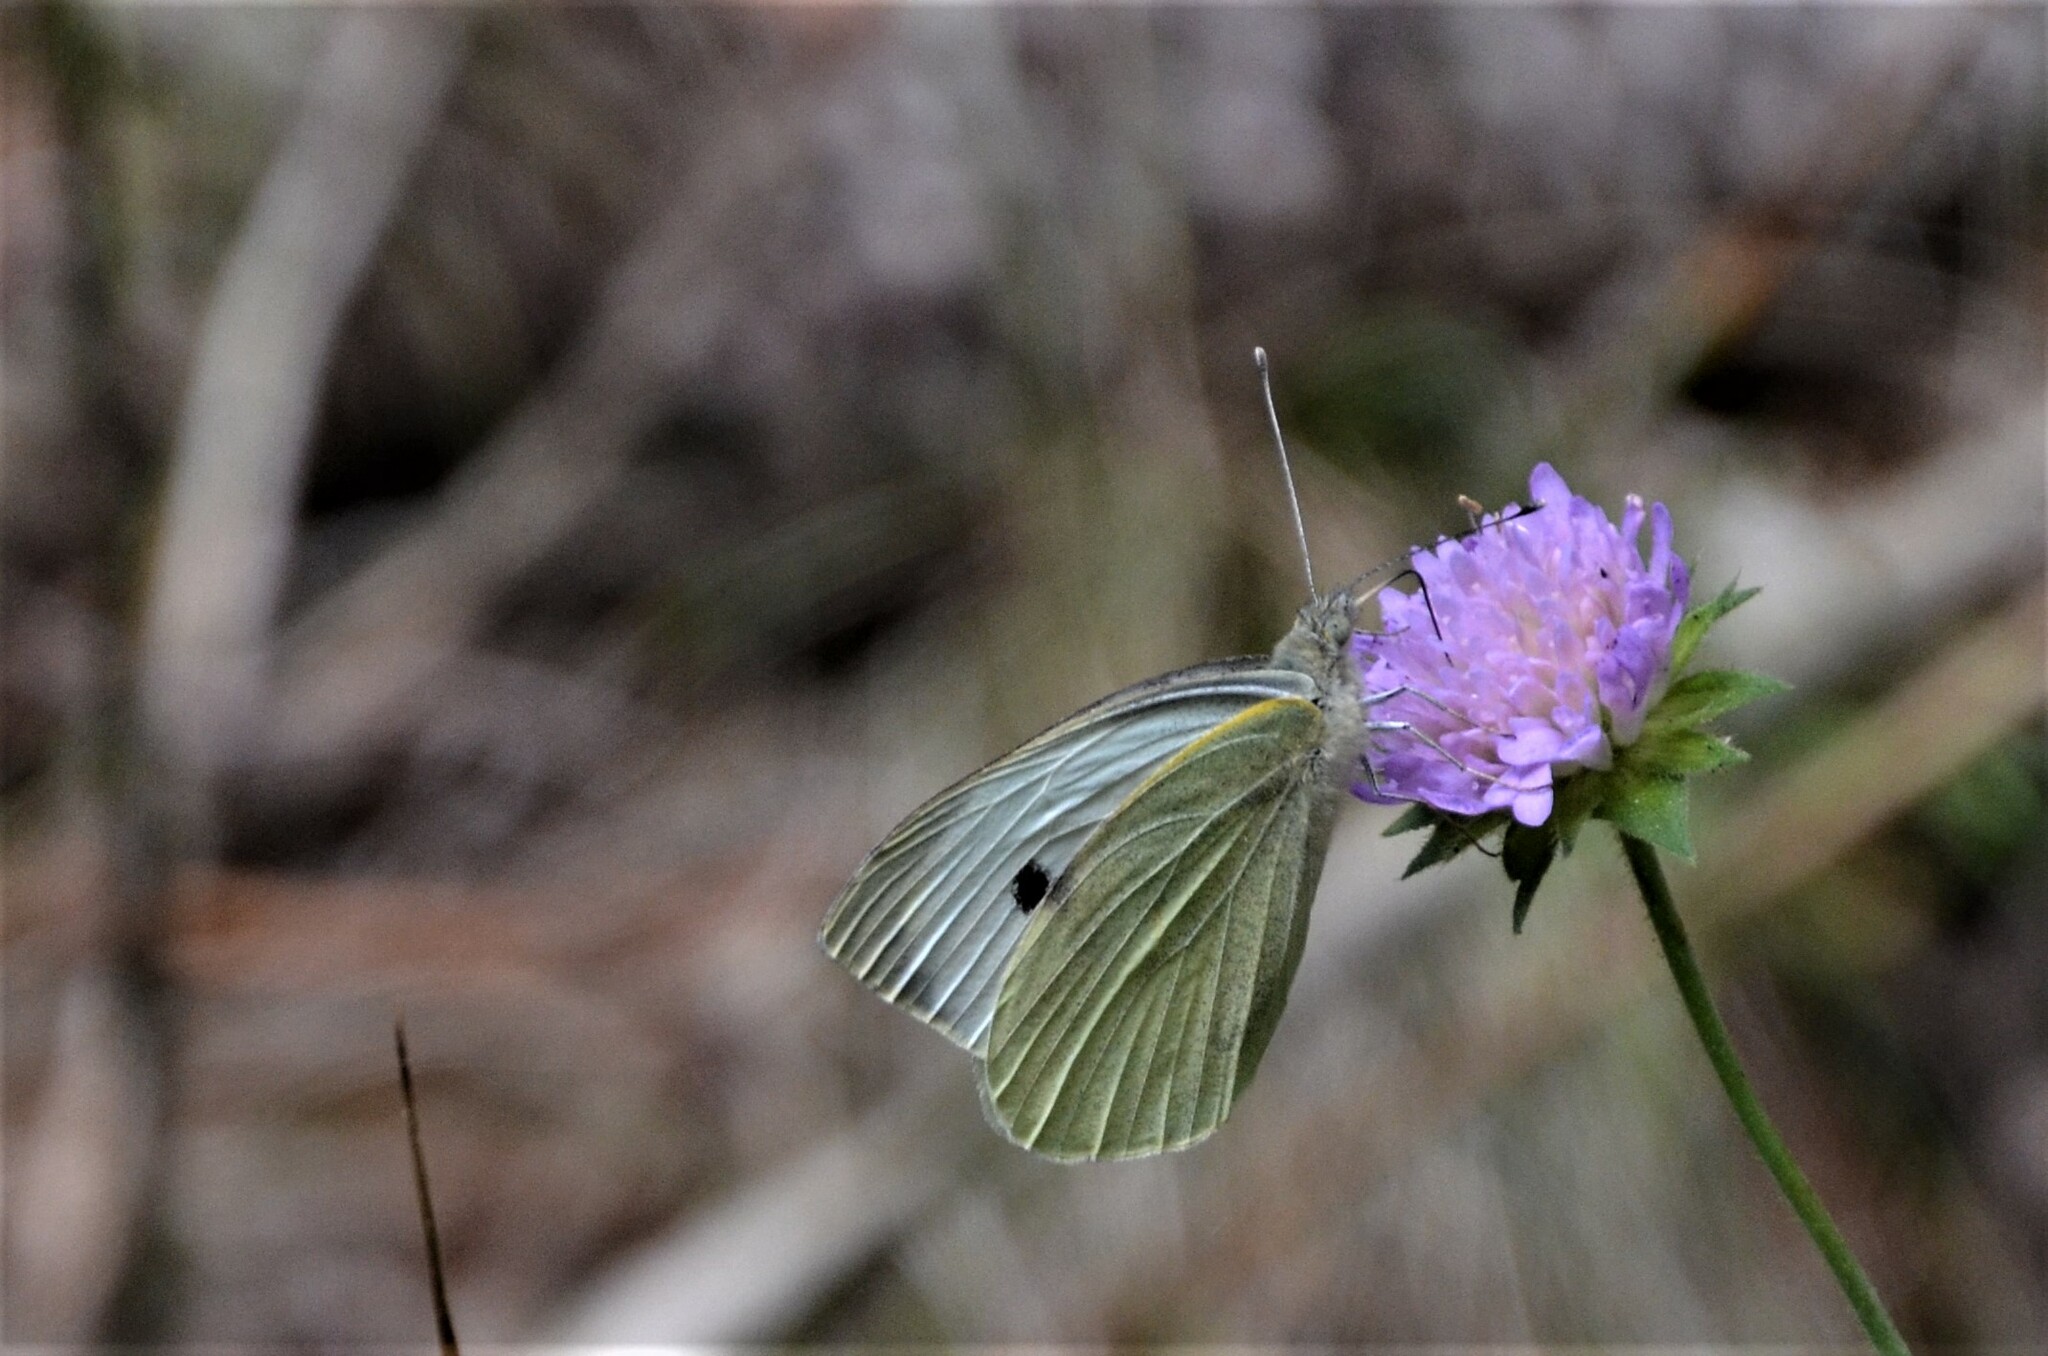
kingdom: Animalia
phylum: Arthropoda
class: Insecta
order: Lepidoptera
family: Pieridae
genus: Pieris
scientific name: Pieris brassicae
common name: Large white
